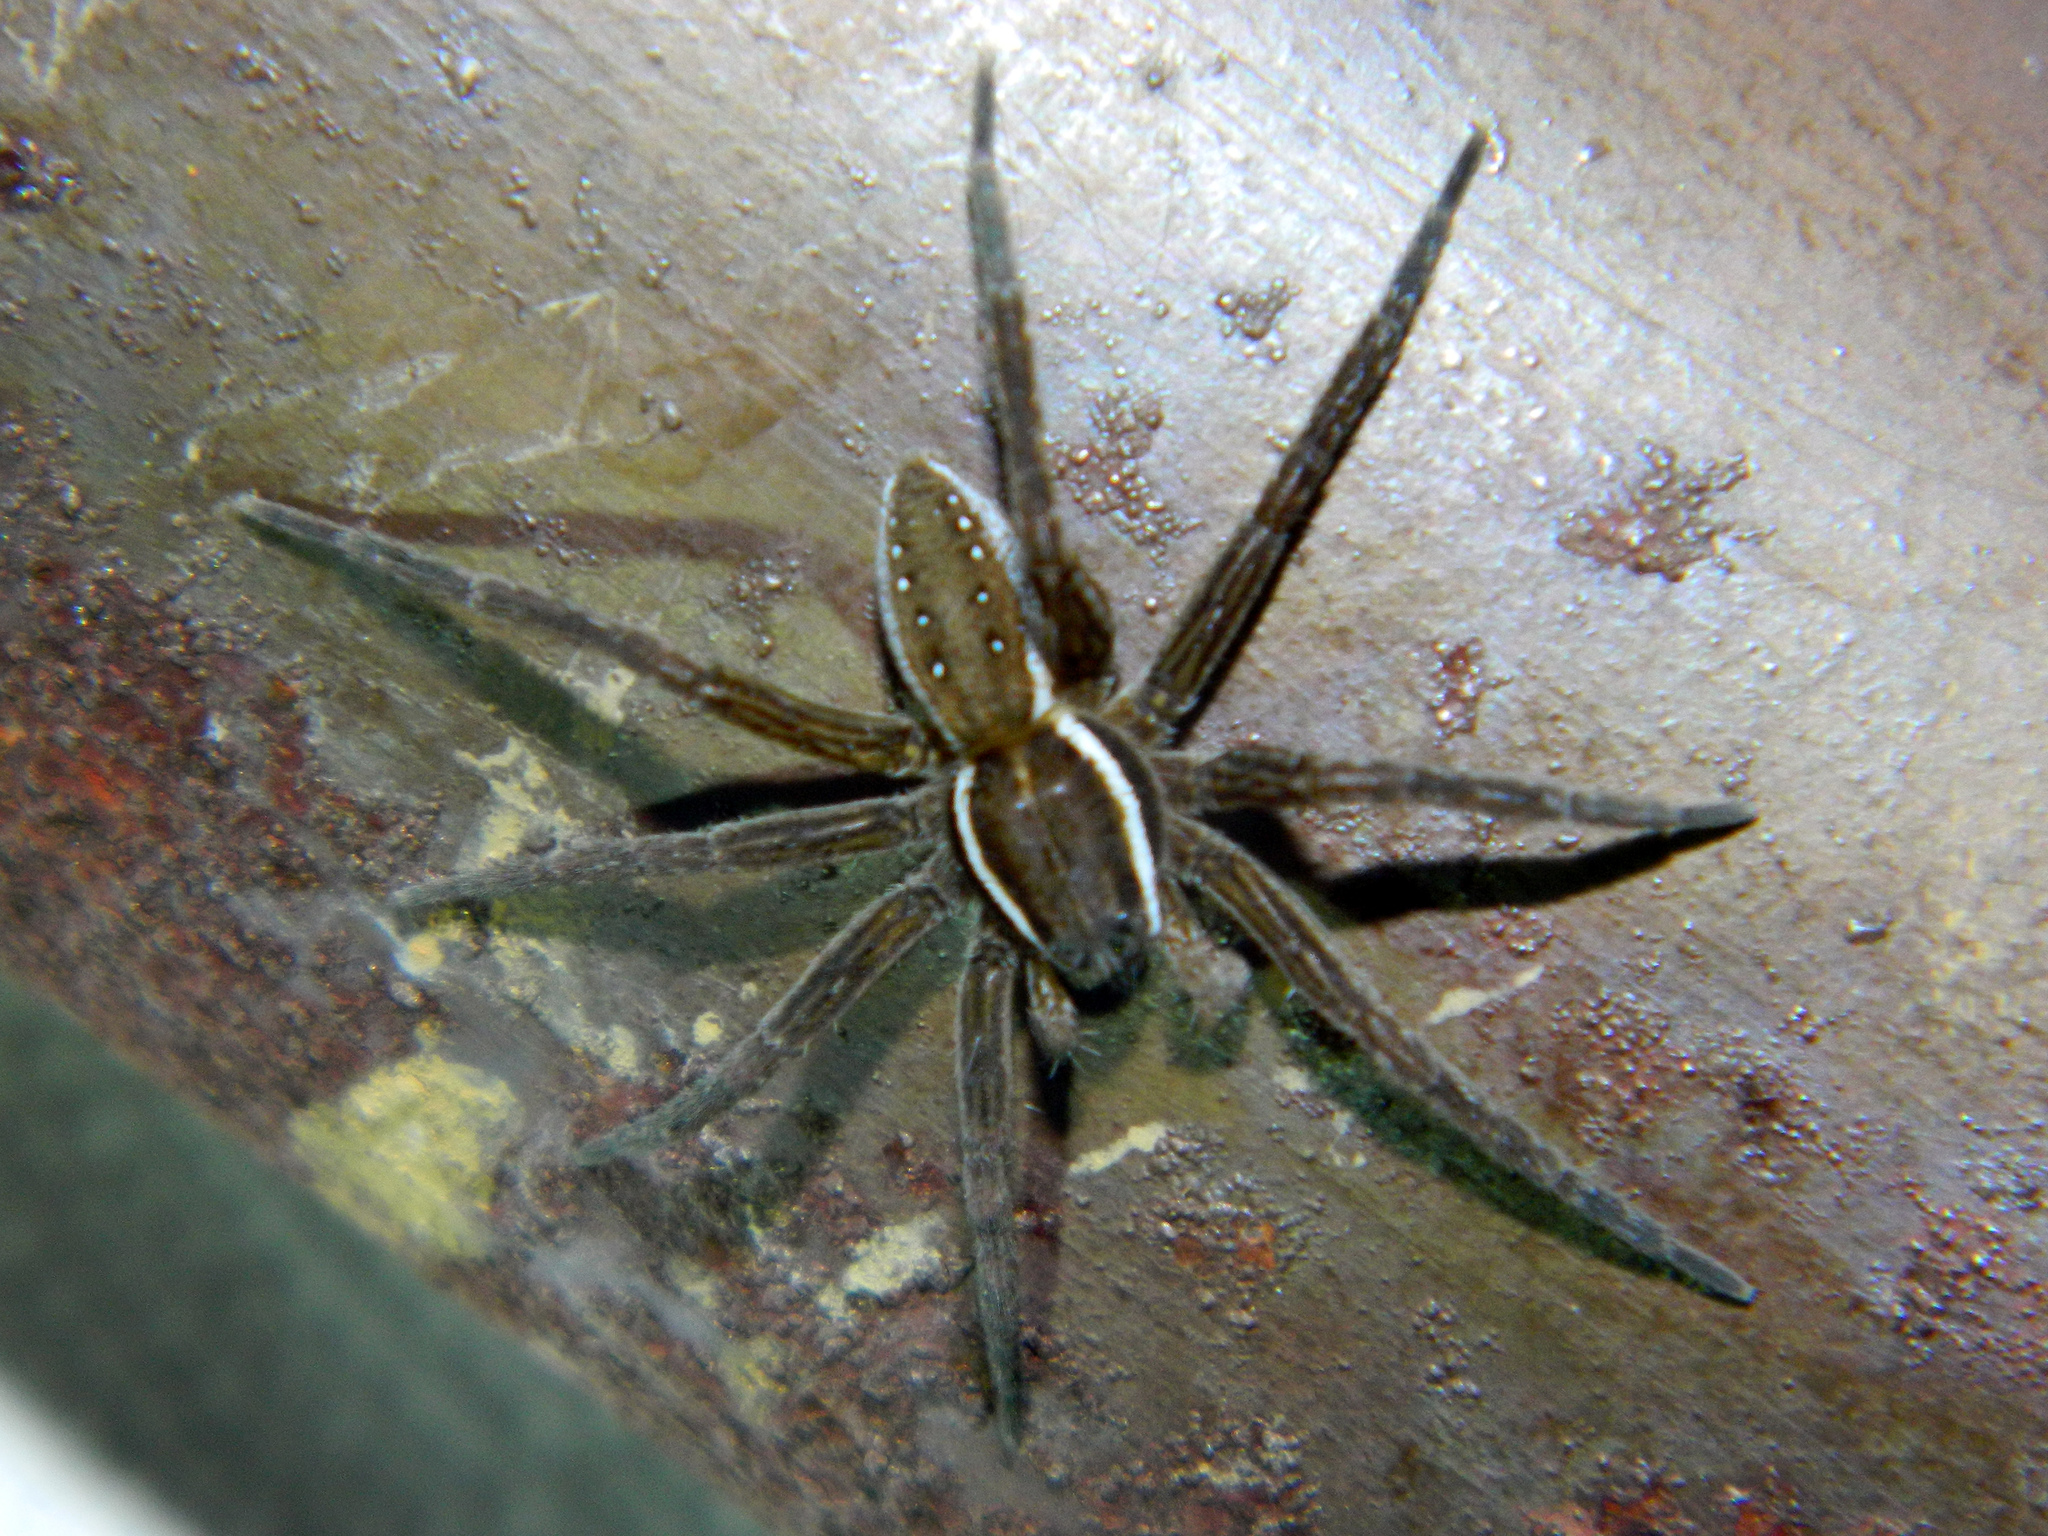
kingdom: Animalia
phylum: Arthropoda
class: Arachnida
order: Araneae
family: Pisauridae
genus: Dolomedes
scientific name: Dolomedes triton
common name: Six-spotted fishing spider
